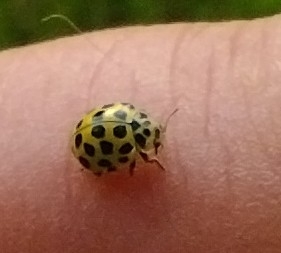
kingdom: Animalia
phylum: Arthropoda
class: Insecta
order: Coleoptera
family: Coccinellidae
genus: Psyllobora
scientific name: Psyllobora vigintiduopunctata
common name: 22-spot ladybird
